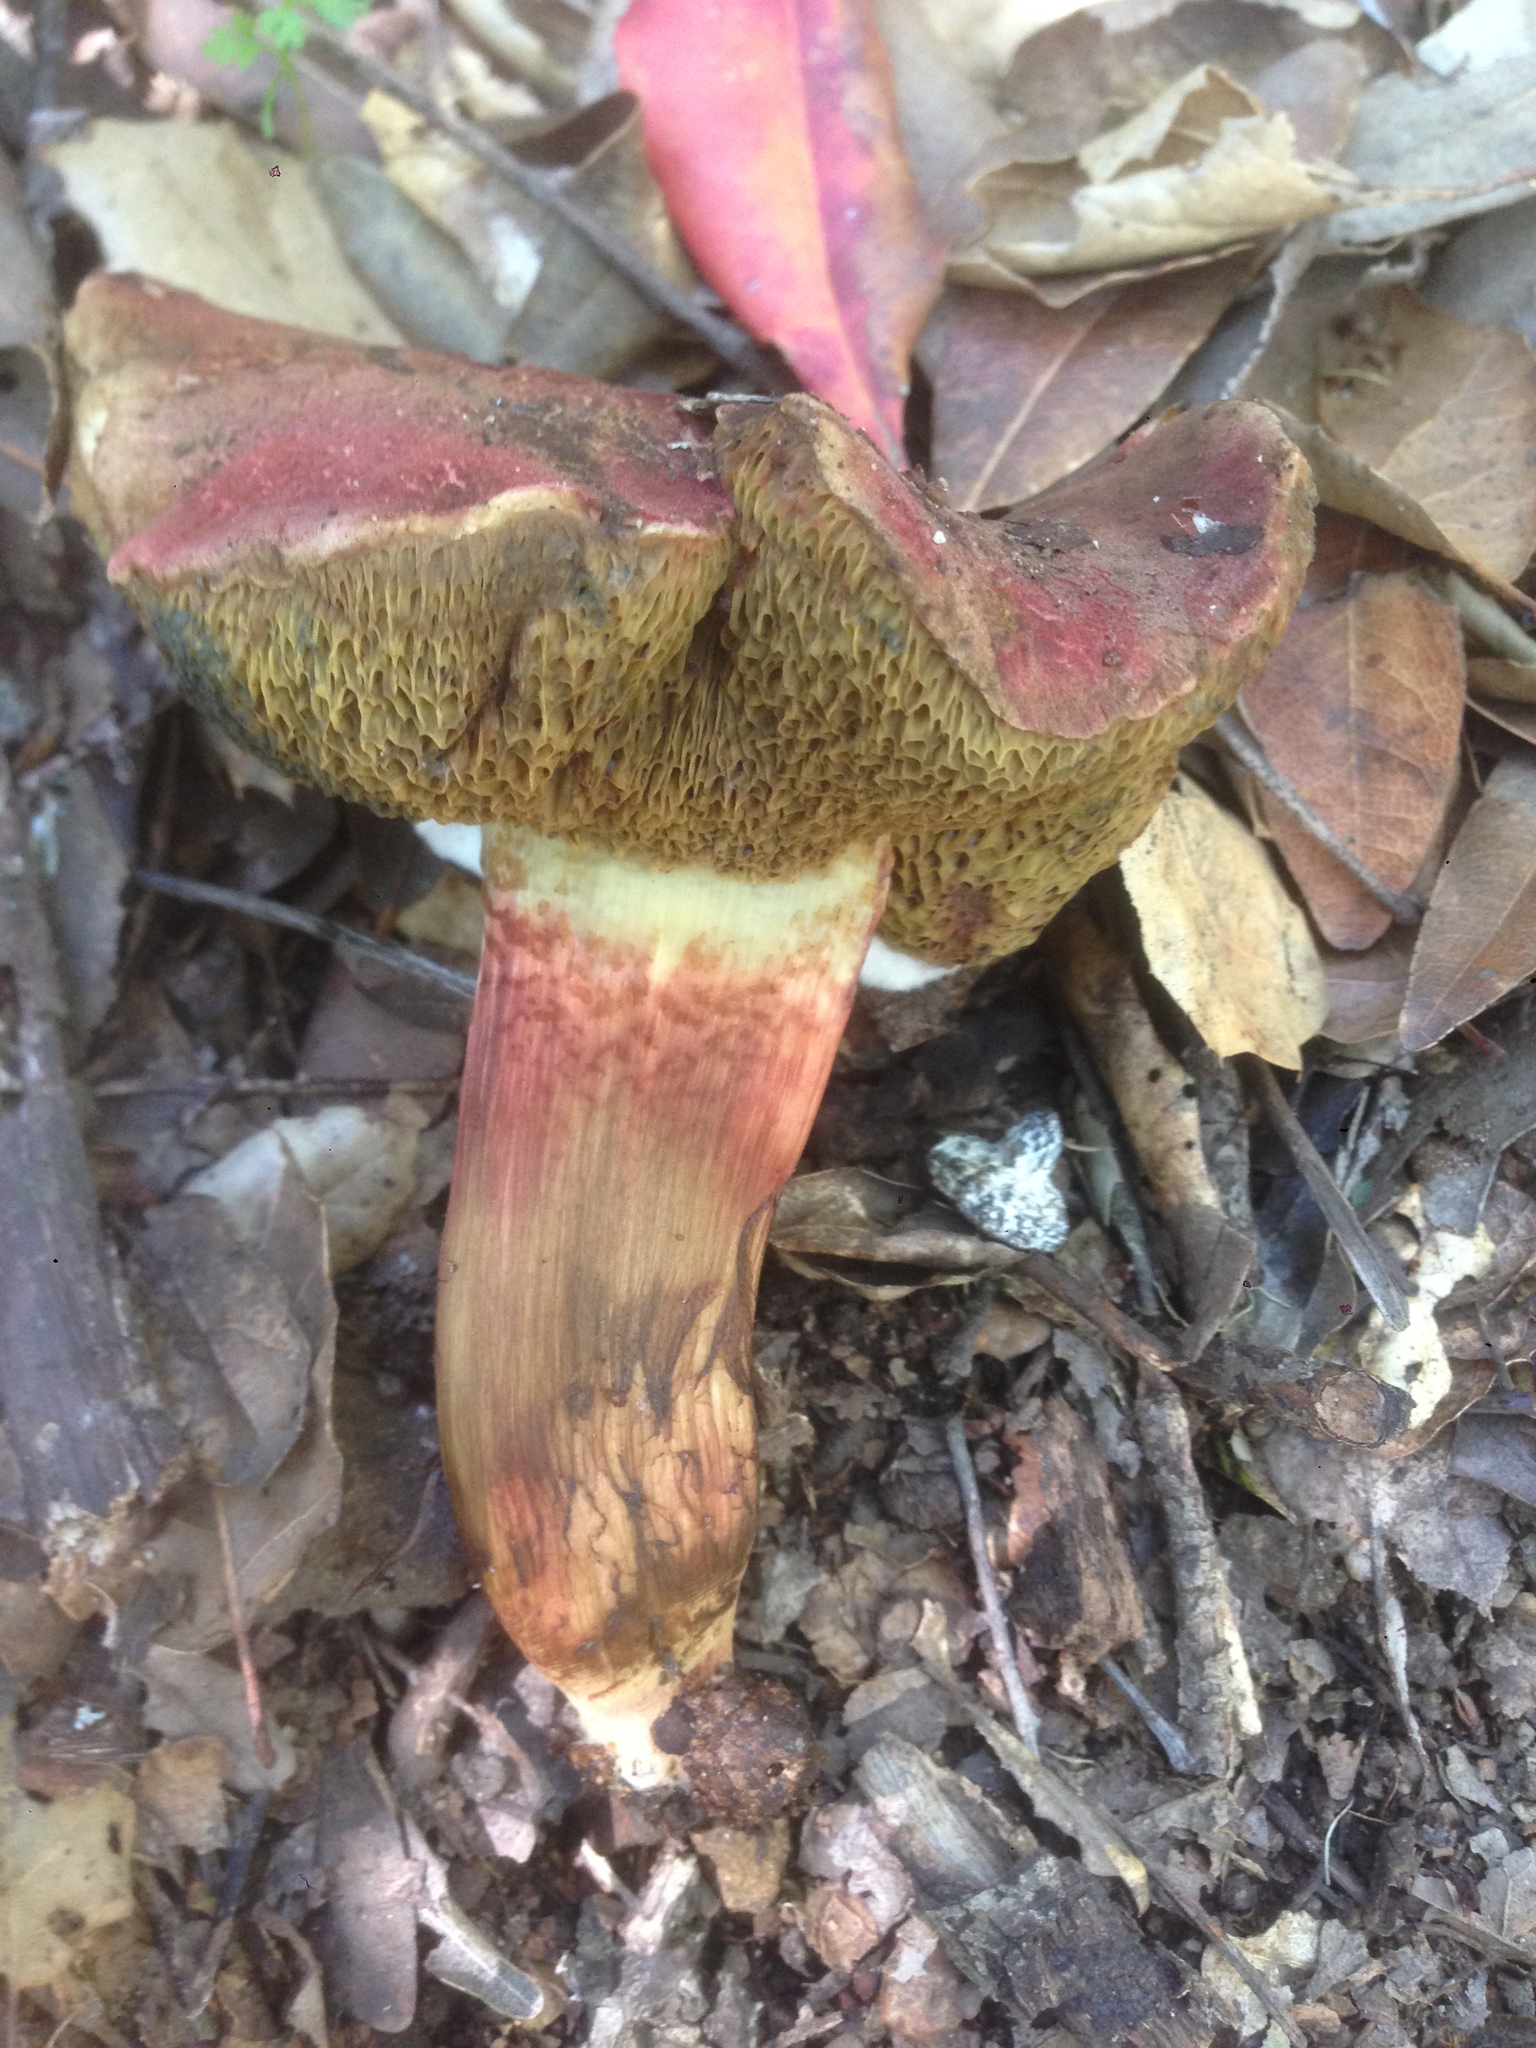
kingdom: Fungi
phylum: Basidiomycota
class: Agaricomycetes
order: Boletales
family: Boletaceae
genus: Xerocomellus
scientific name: Xerocomellus dryophilus
